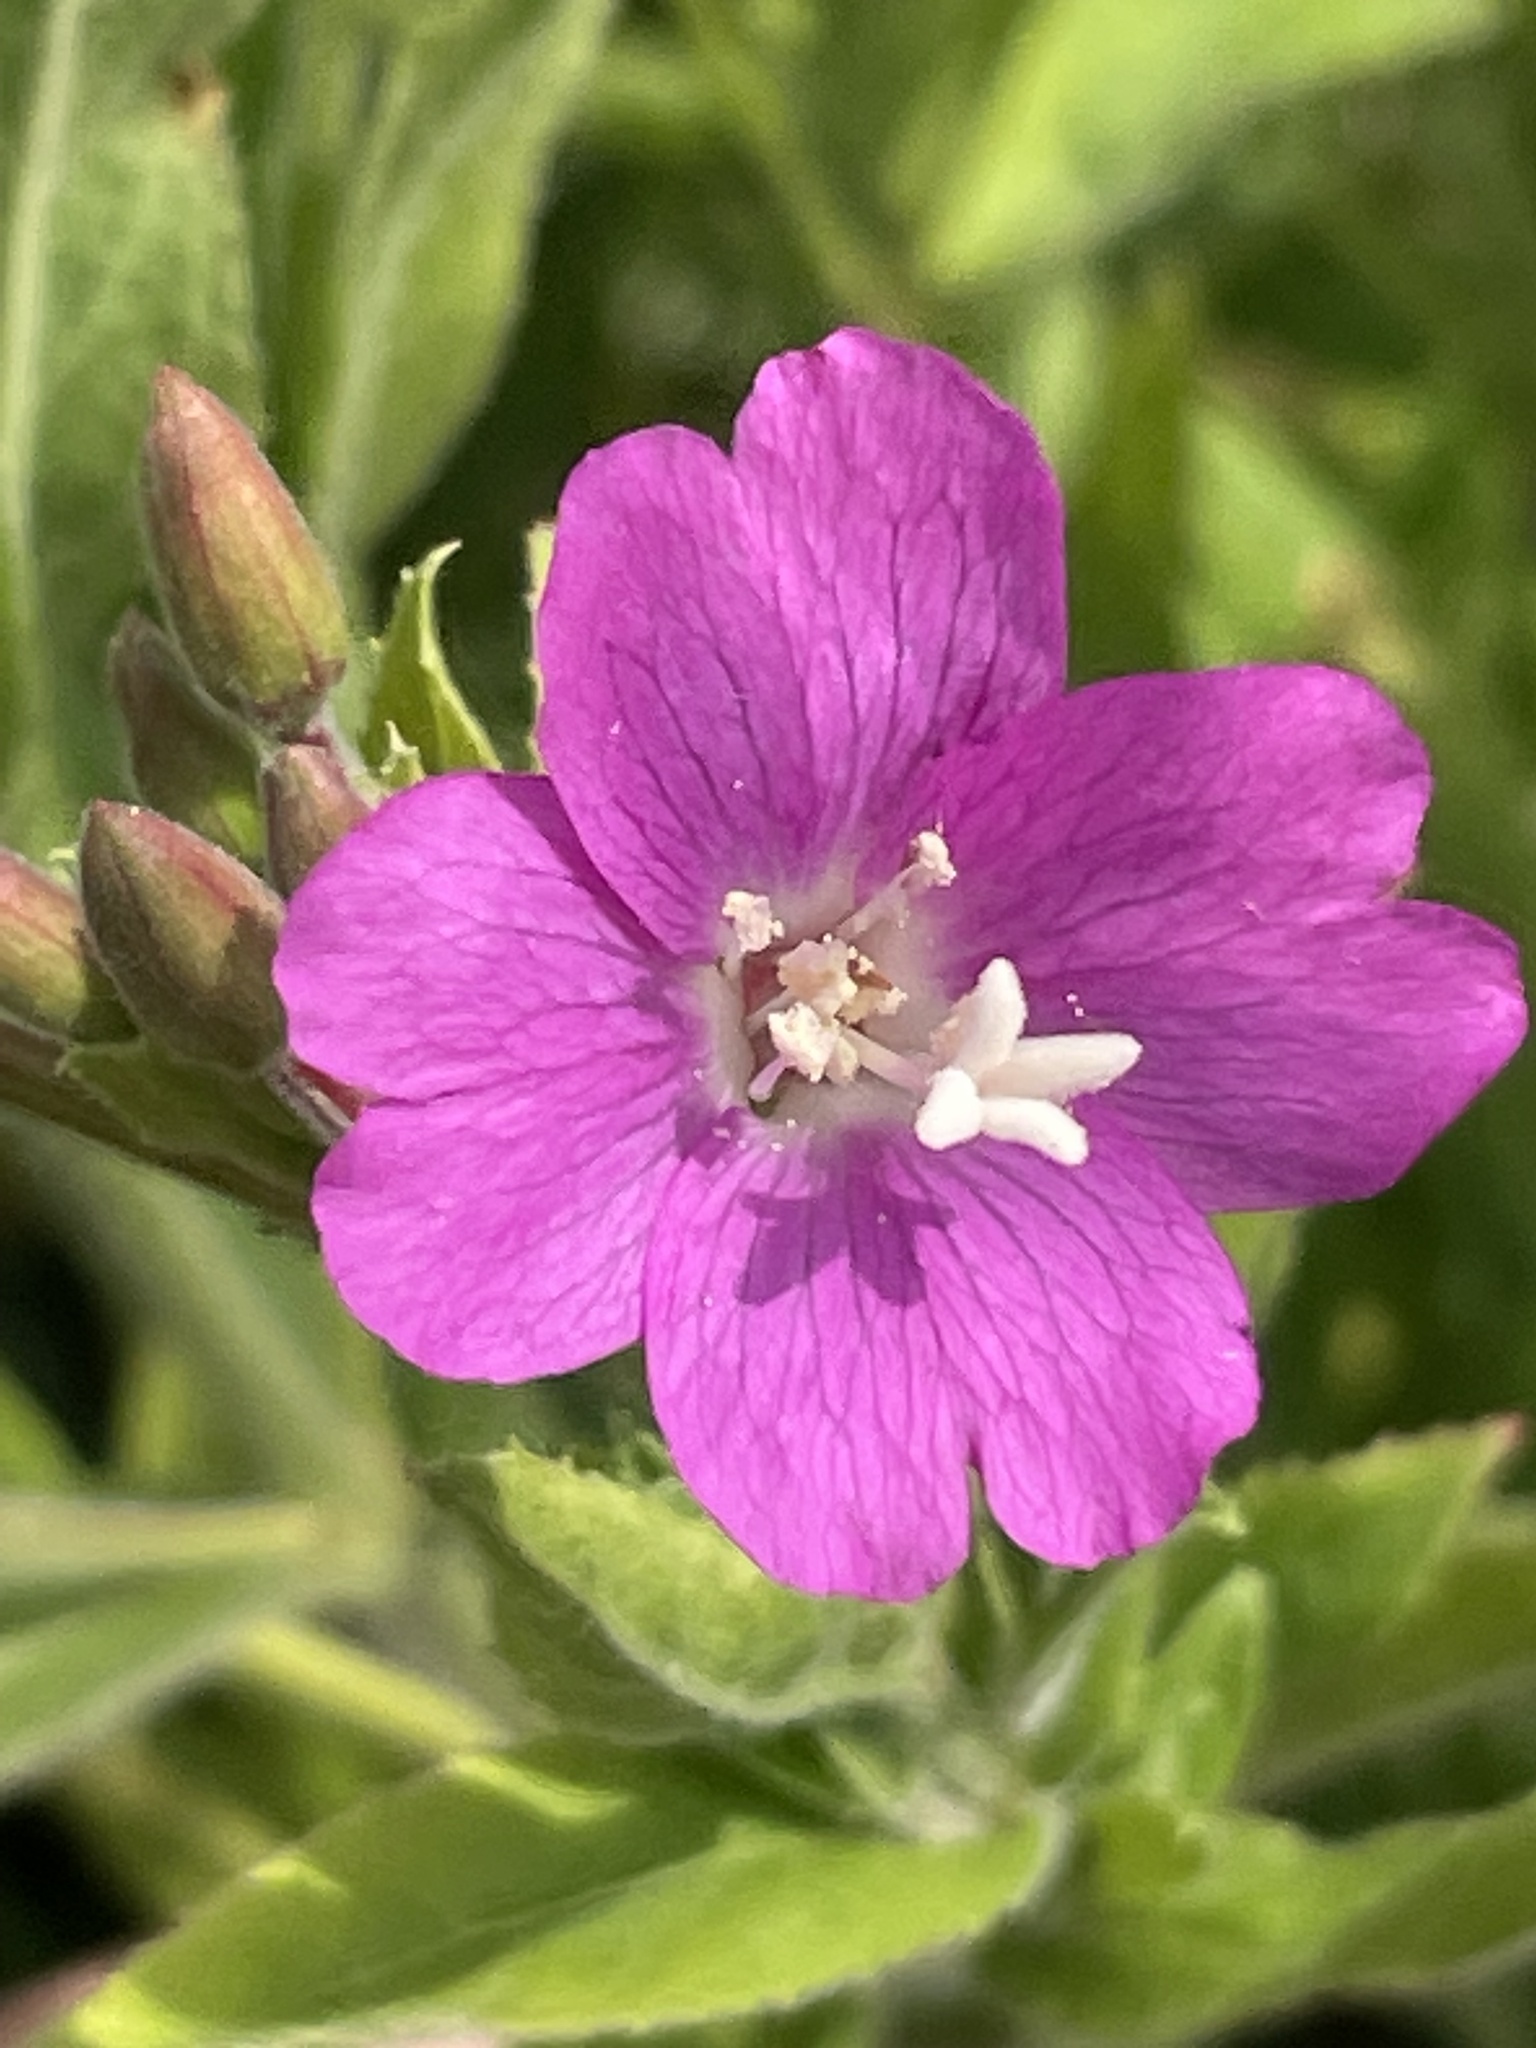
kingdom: Plantae
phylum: Tracheophyta
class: Magnoliopsida
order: Myrtales
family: Onagraceae
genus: Epilobium
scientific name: Epilobium hirsutum
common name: Great willowherb
